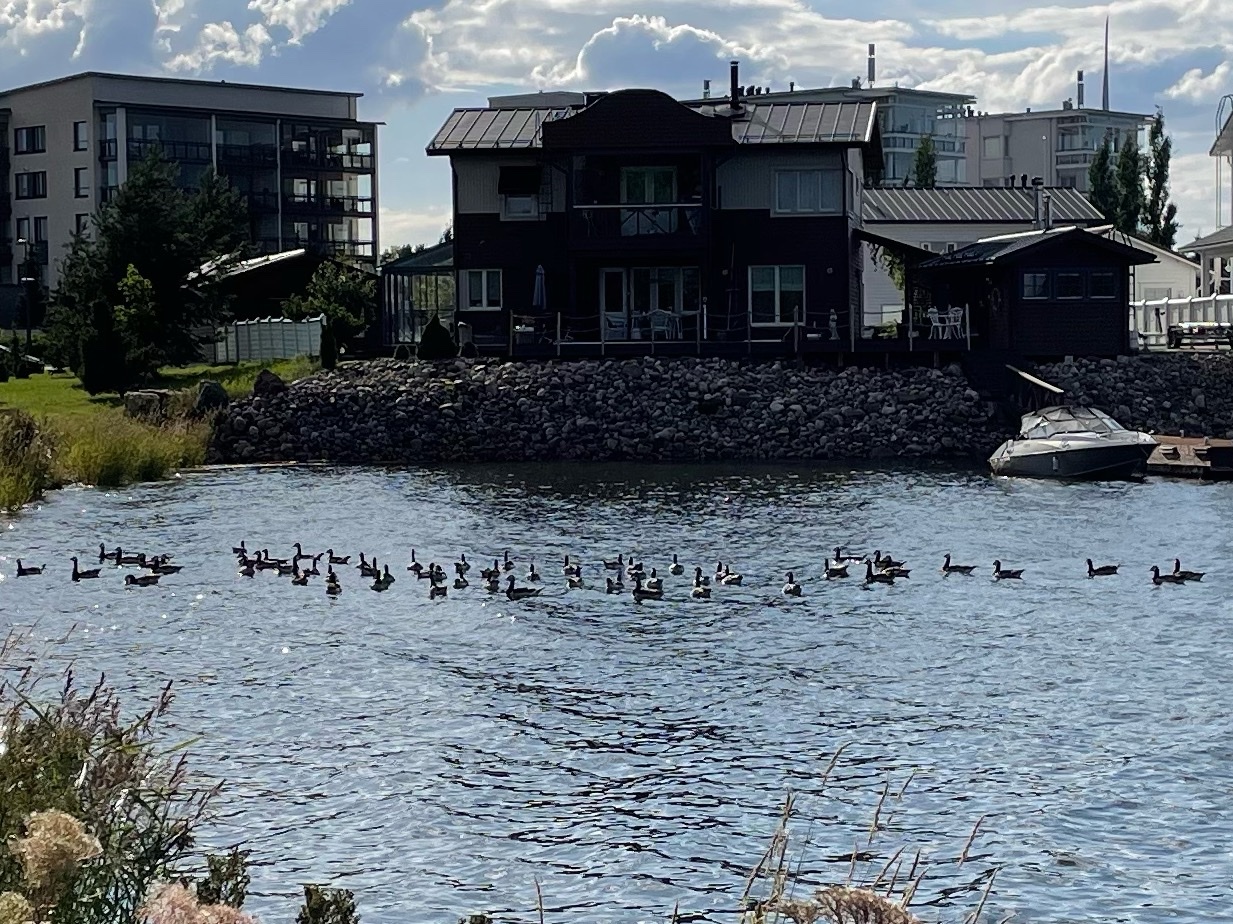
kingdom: Animalia
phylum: Chordata
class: Aves
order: Anseriformes
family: Anatidae
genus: Branta
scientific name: Branta leucopsis
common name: Barnacle goose
